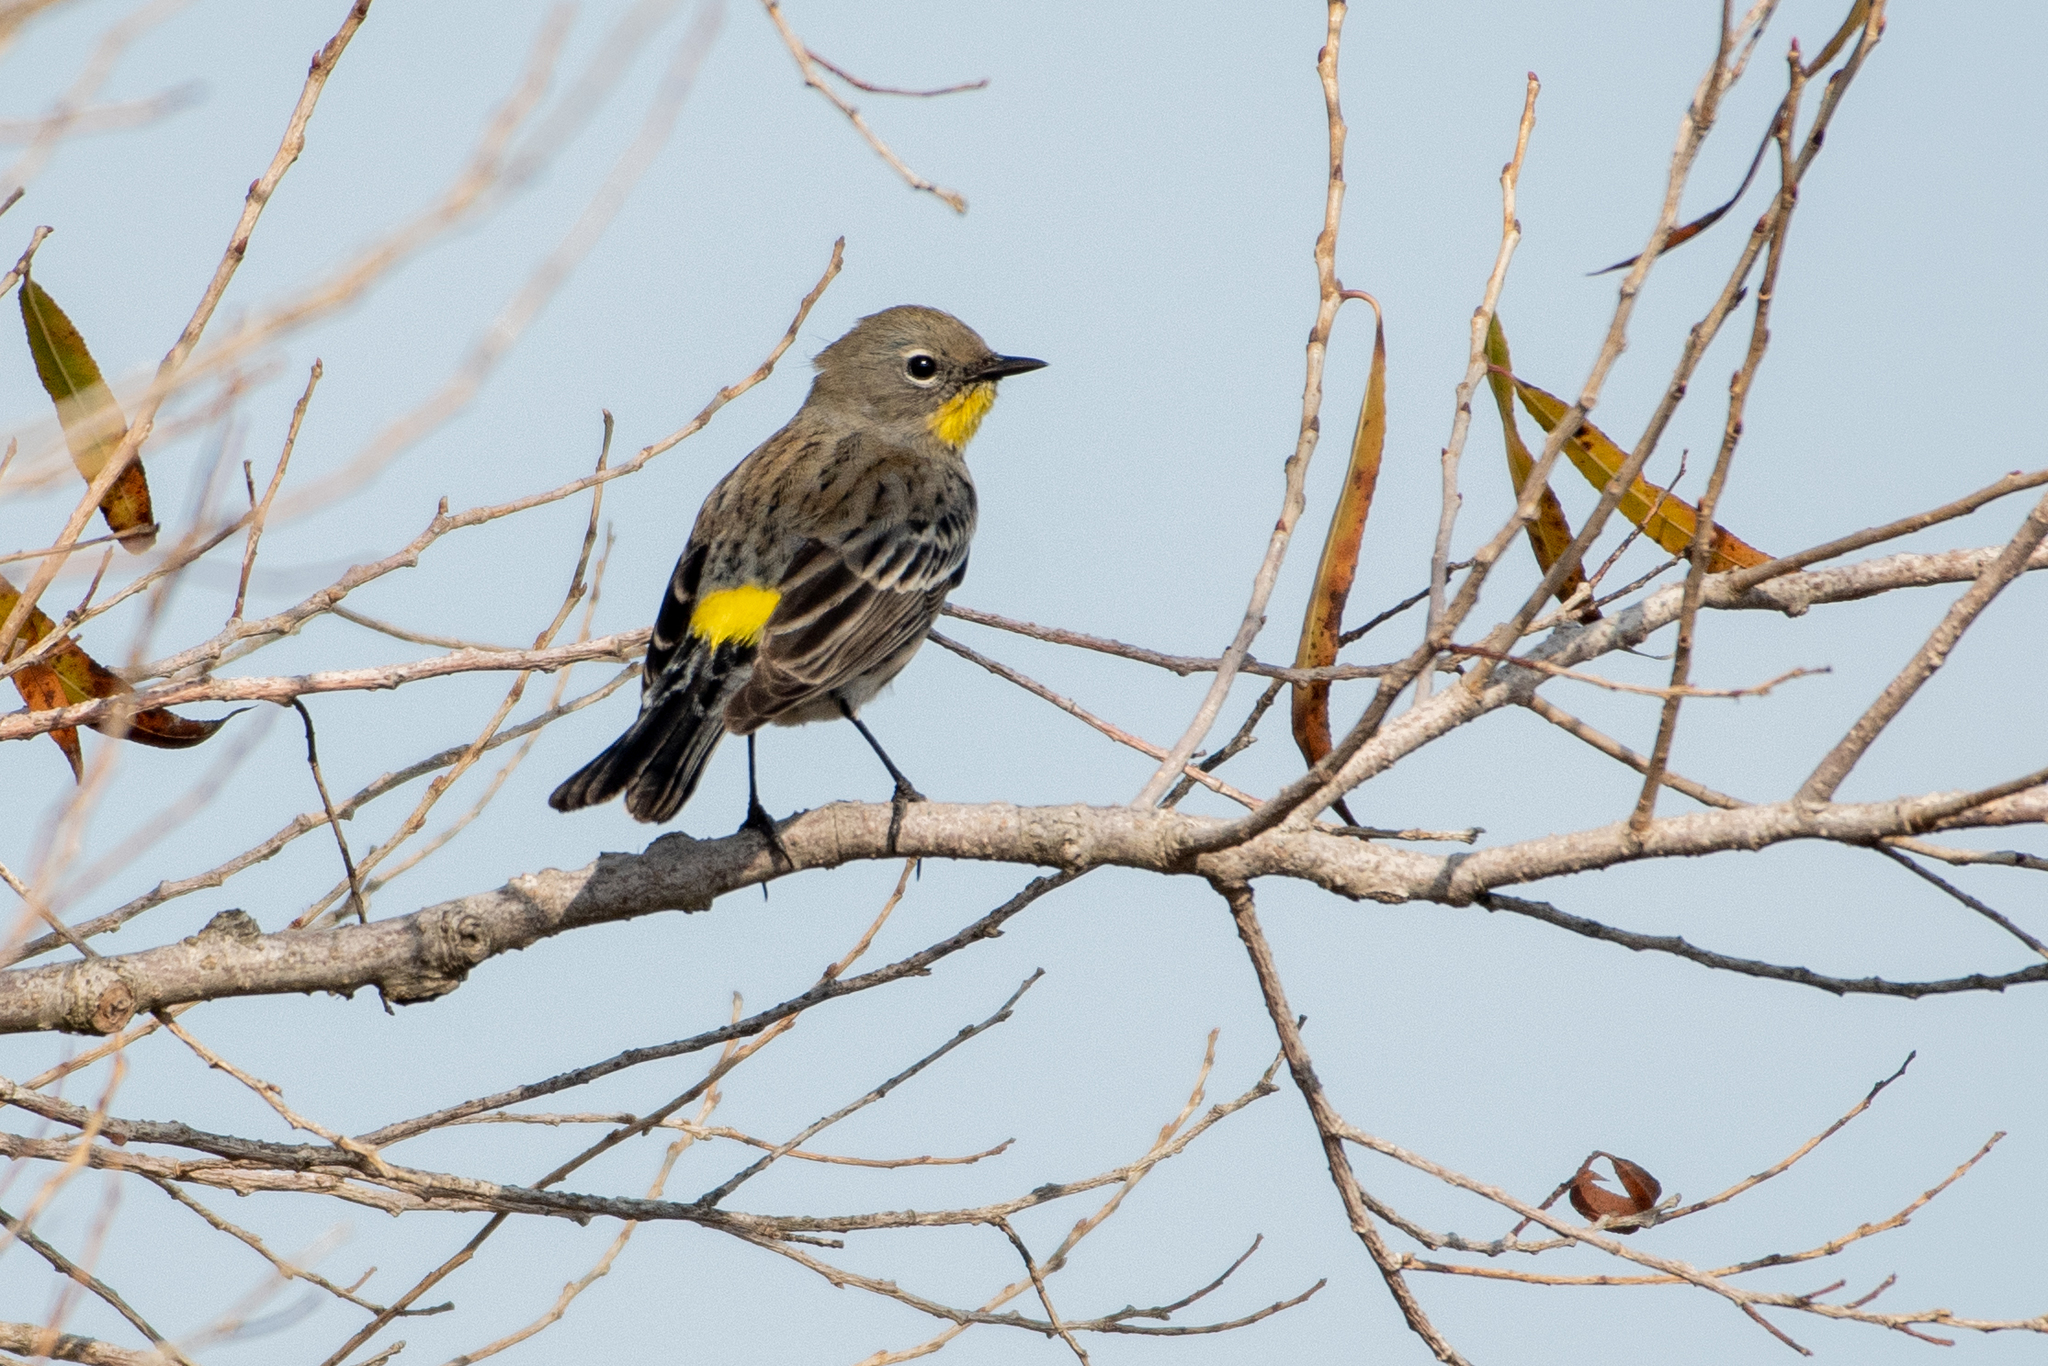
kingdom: Animalia
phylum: Chordata
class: Aves
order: Passeriformes
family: Parulidae
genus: Setophaga
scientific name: Setophaga coronata
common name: Myrtle warbler
